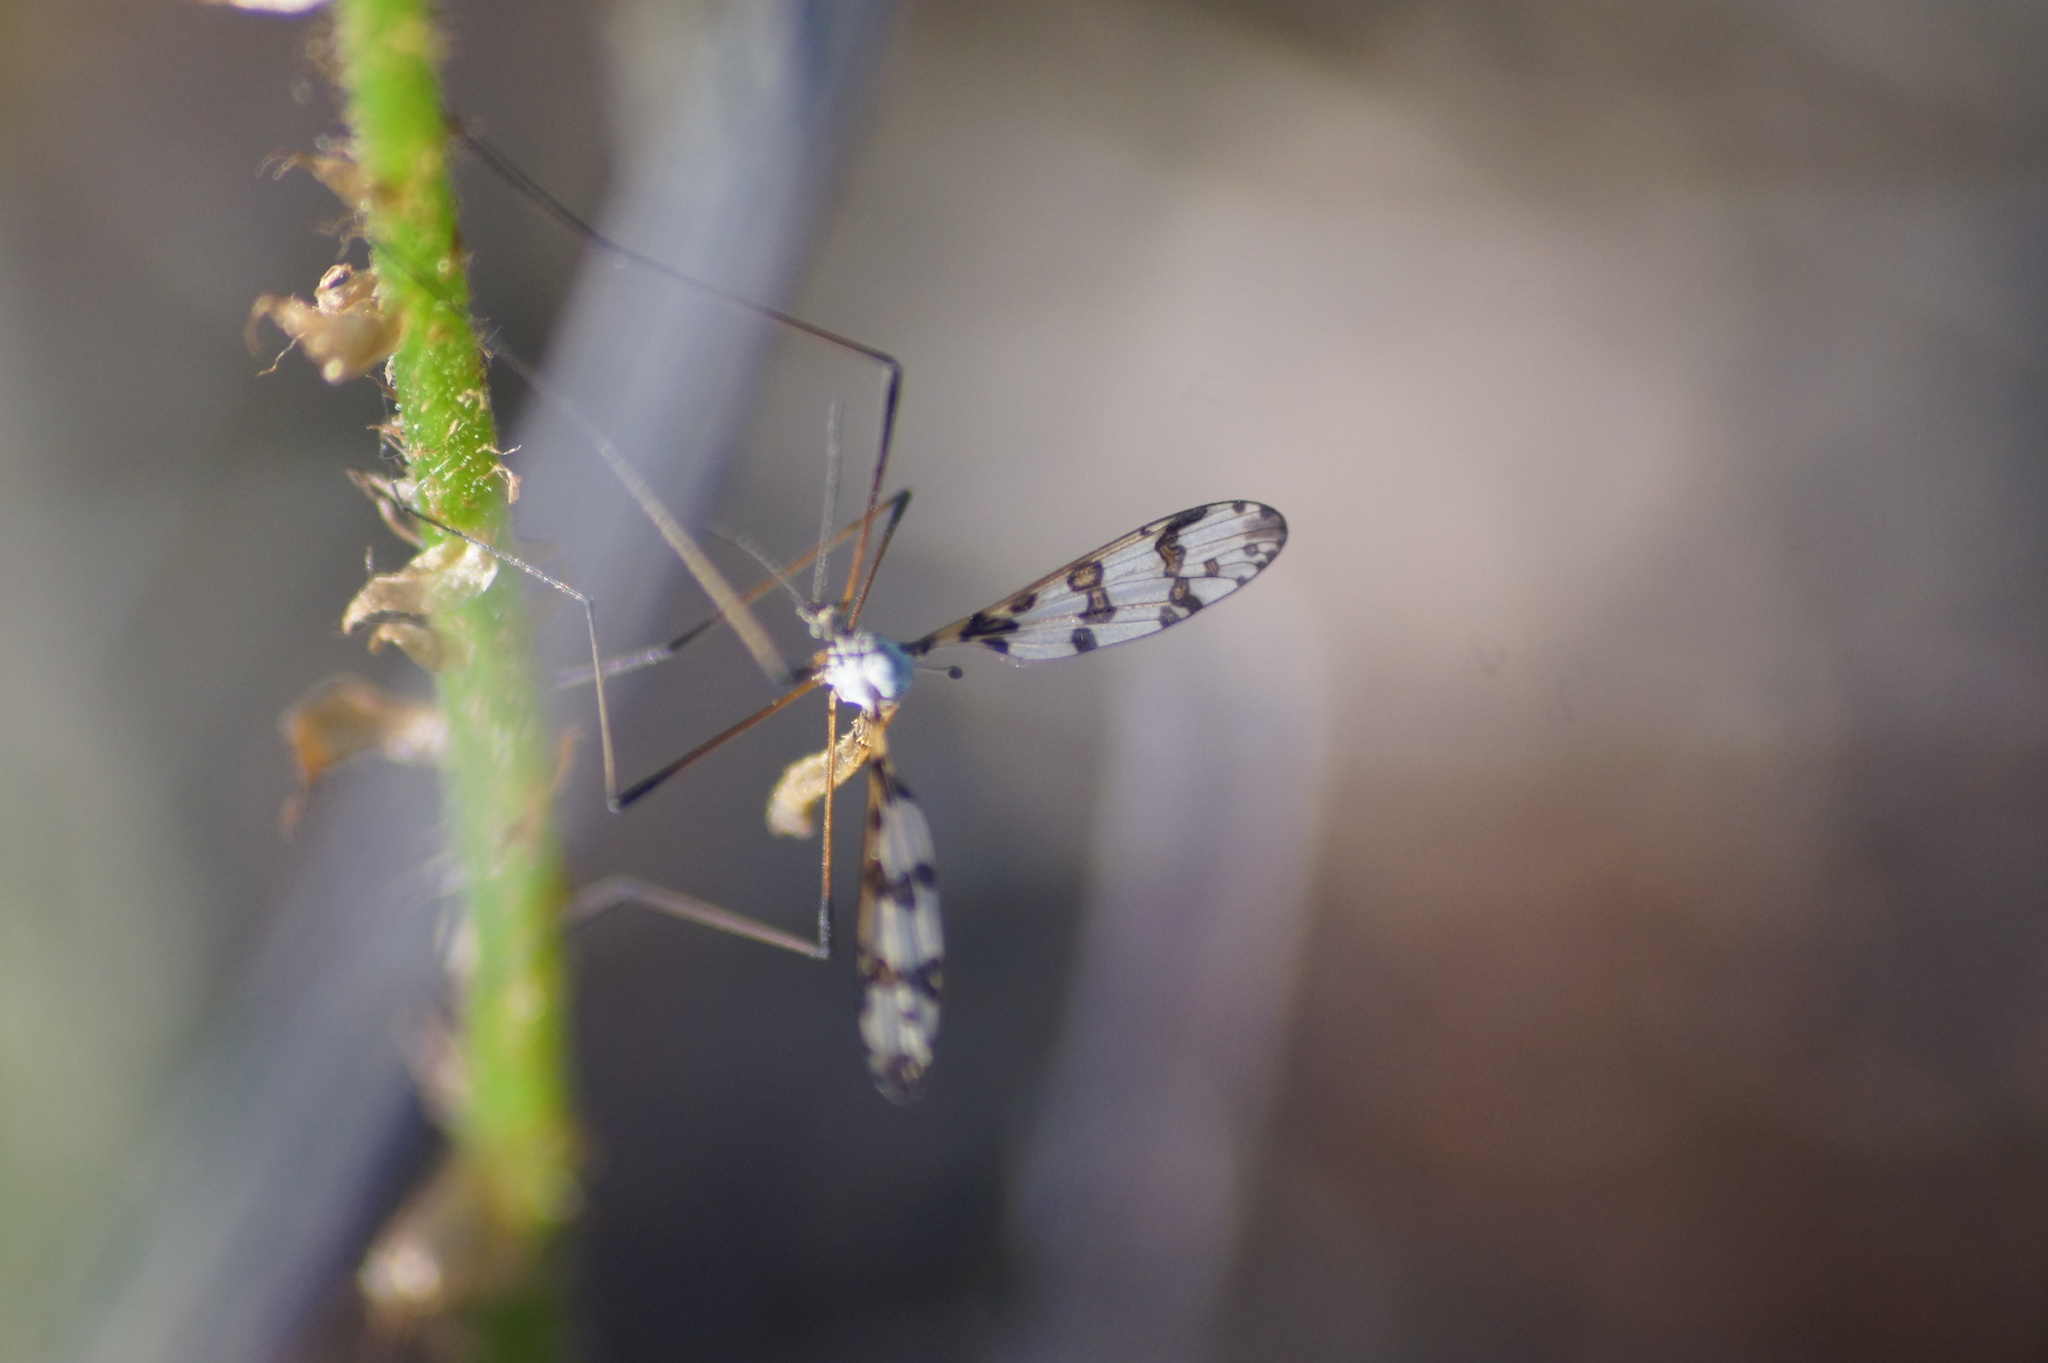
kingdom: Animalia
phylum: Arthropoda
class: Insecta
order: Diptera
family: Limoniidae
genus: Idioptera
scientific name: Idioptera linnei
